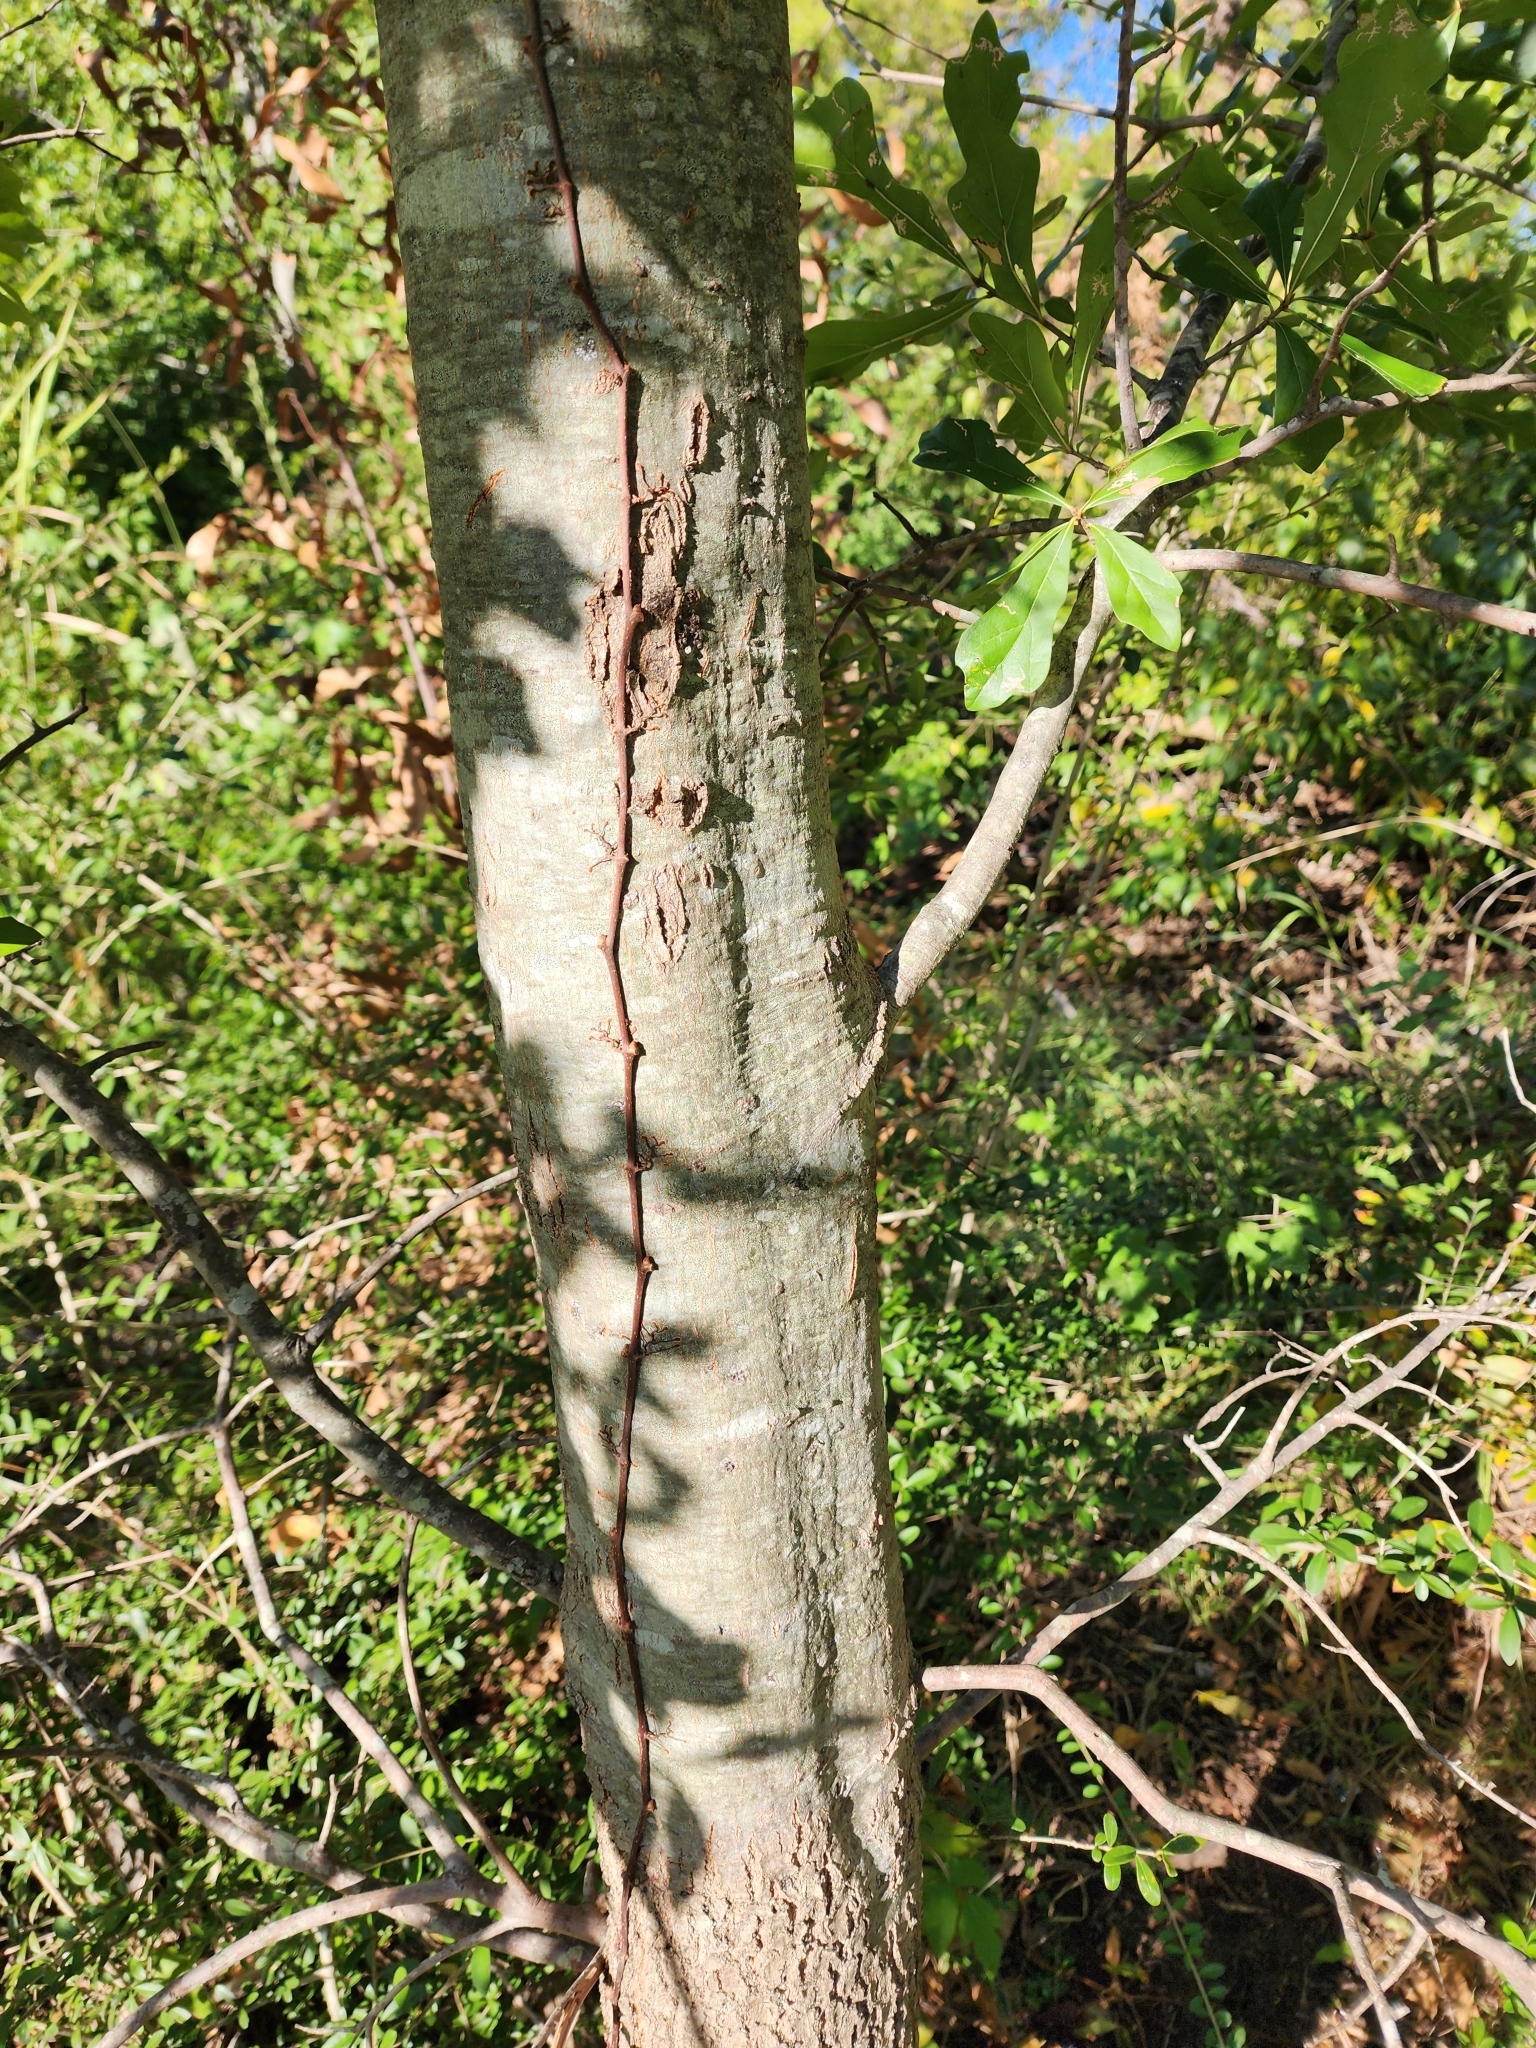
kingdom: Plantae
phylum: Tracheophyta
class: Magnoliopsida
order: Fagales
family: Fagaceae
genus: Quercus
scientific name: Quercus nigra
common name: Water oak
